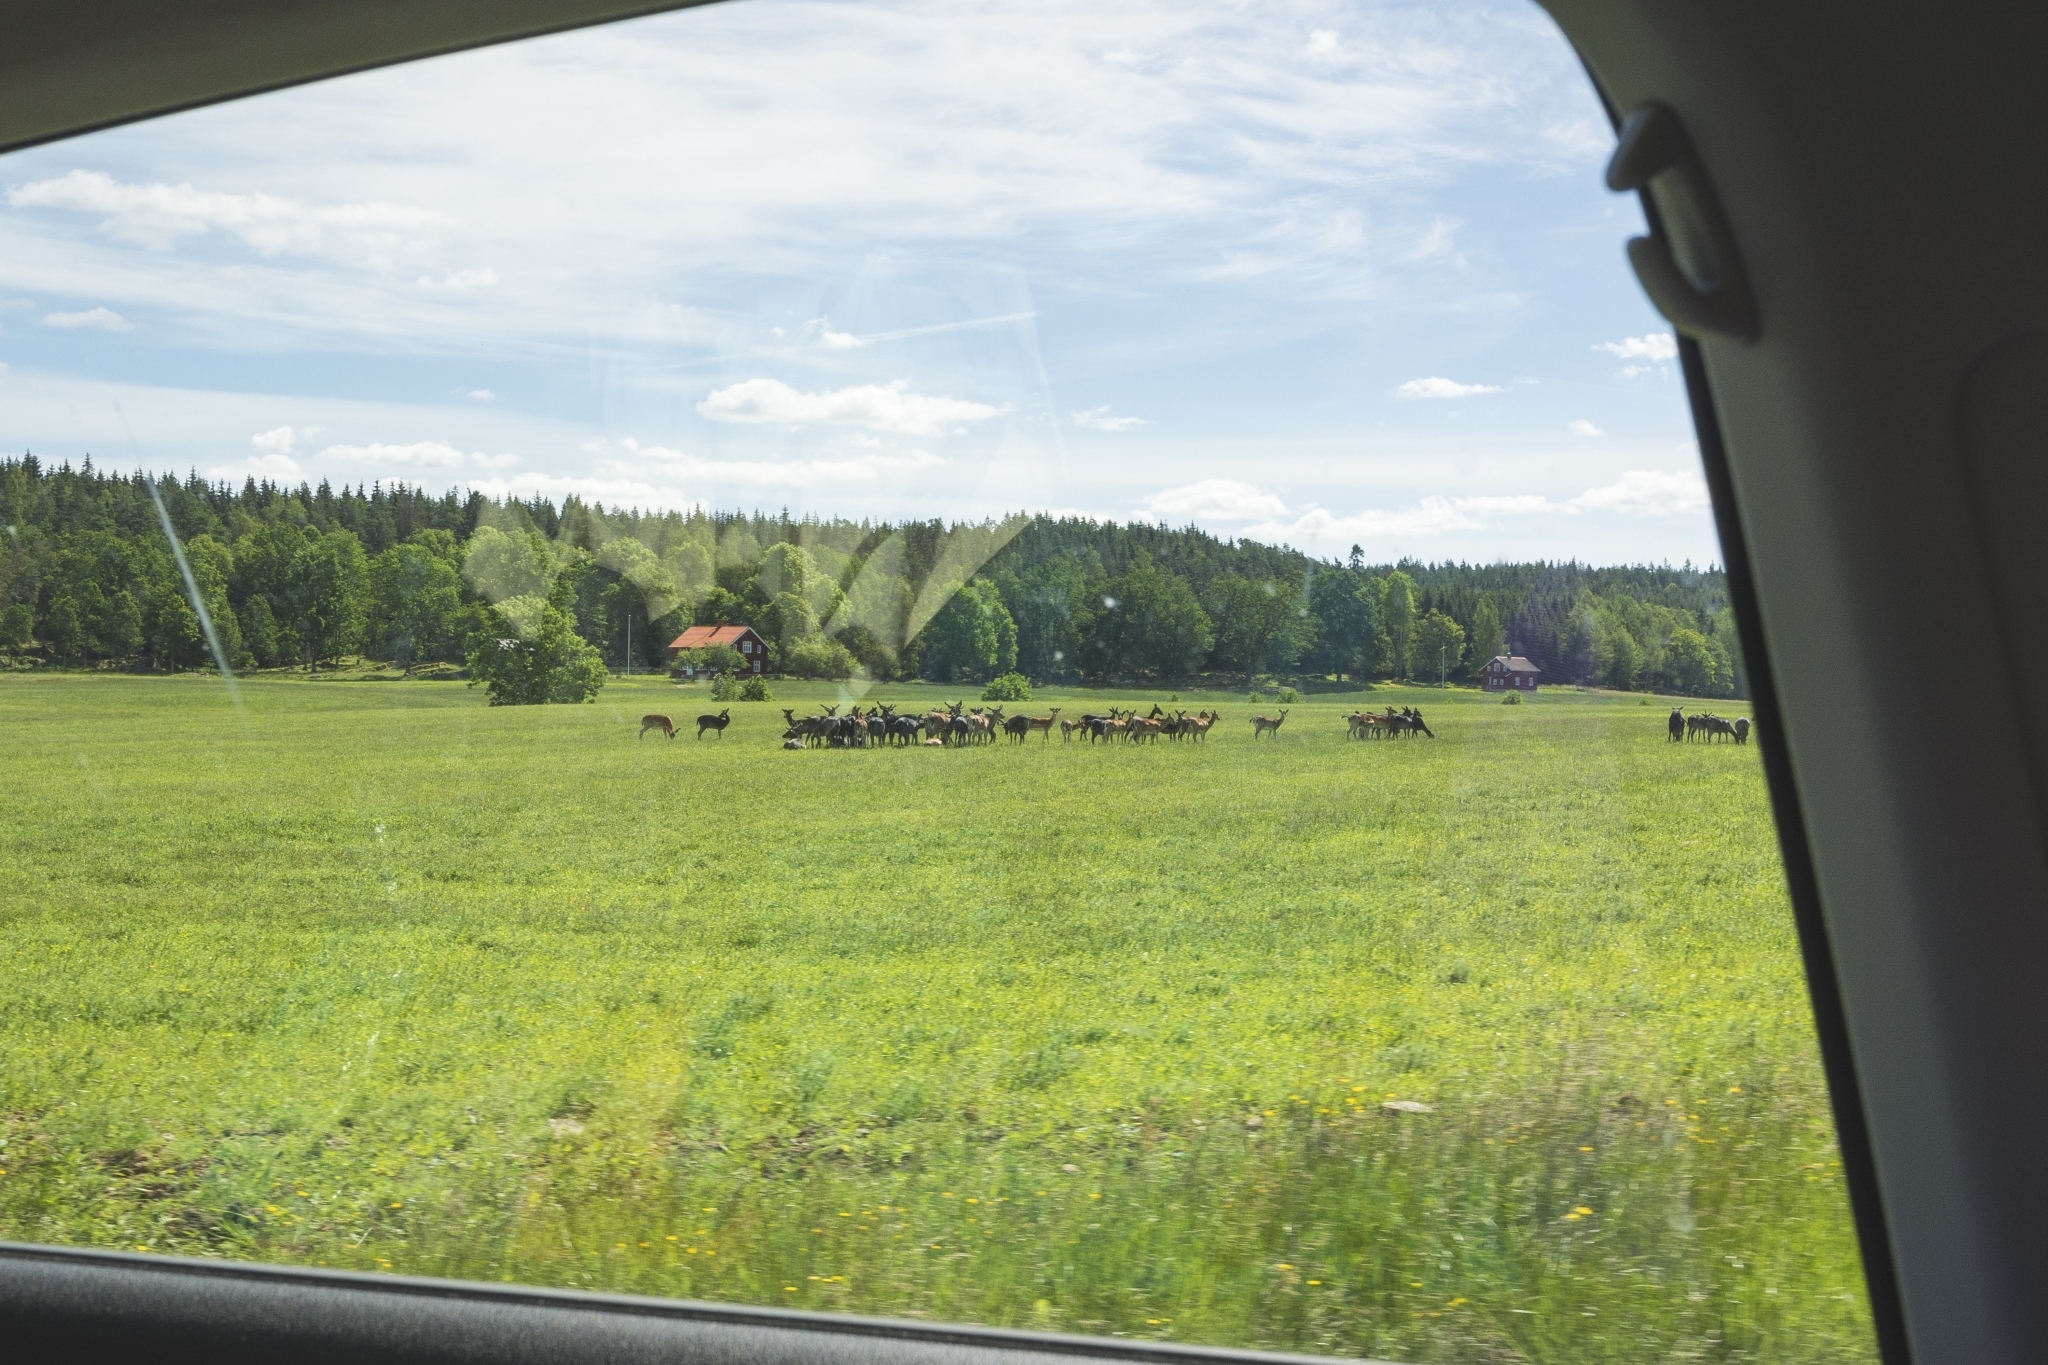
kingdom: Animalia
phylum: Chordata
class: Mammalia
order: Artiodactyla
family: Cervidae
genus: Cervus
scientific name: Cervus elaphus
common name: Red deer
